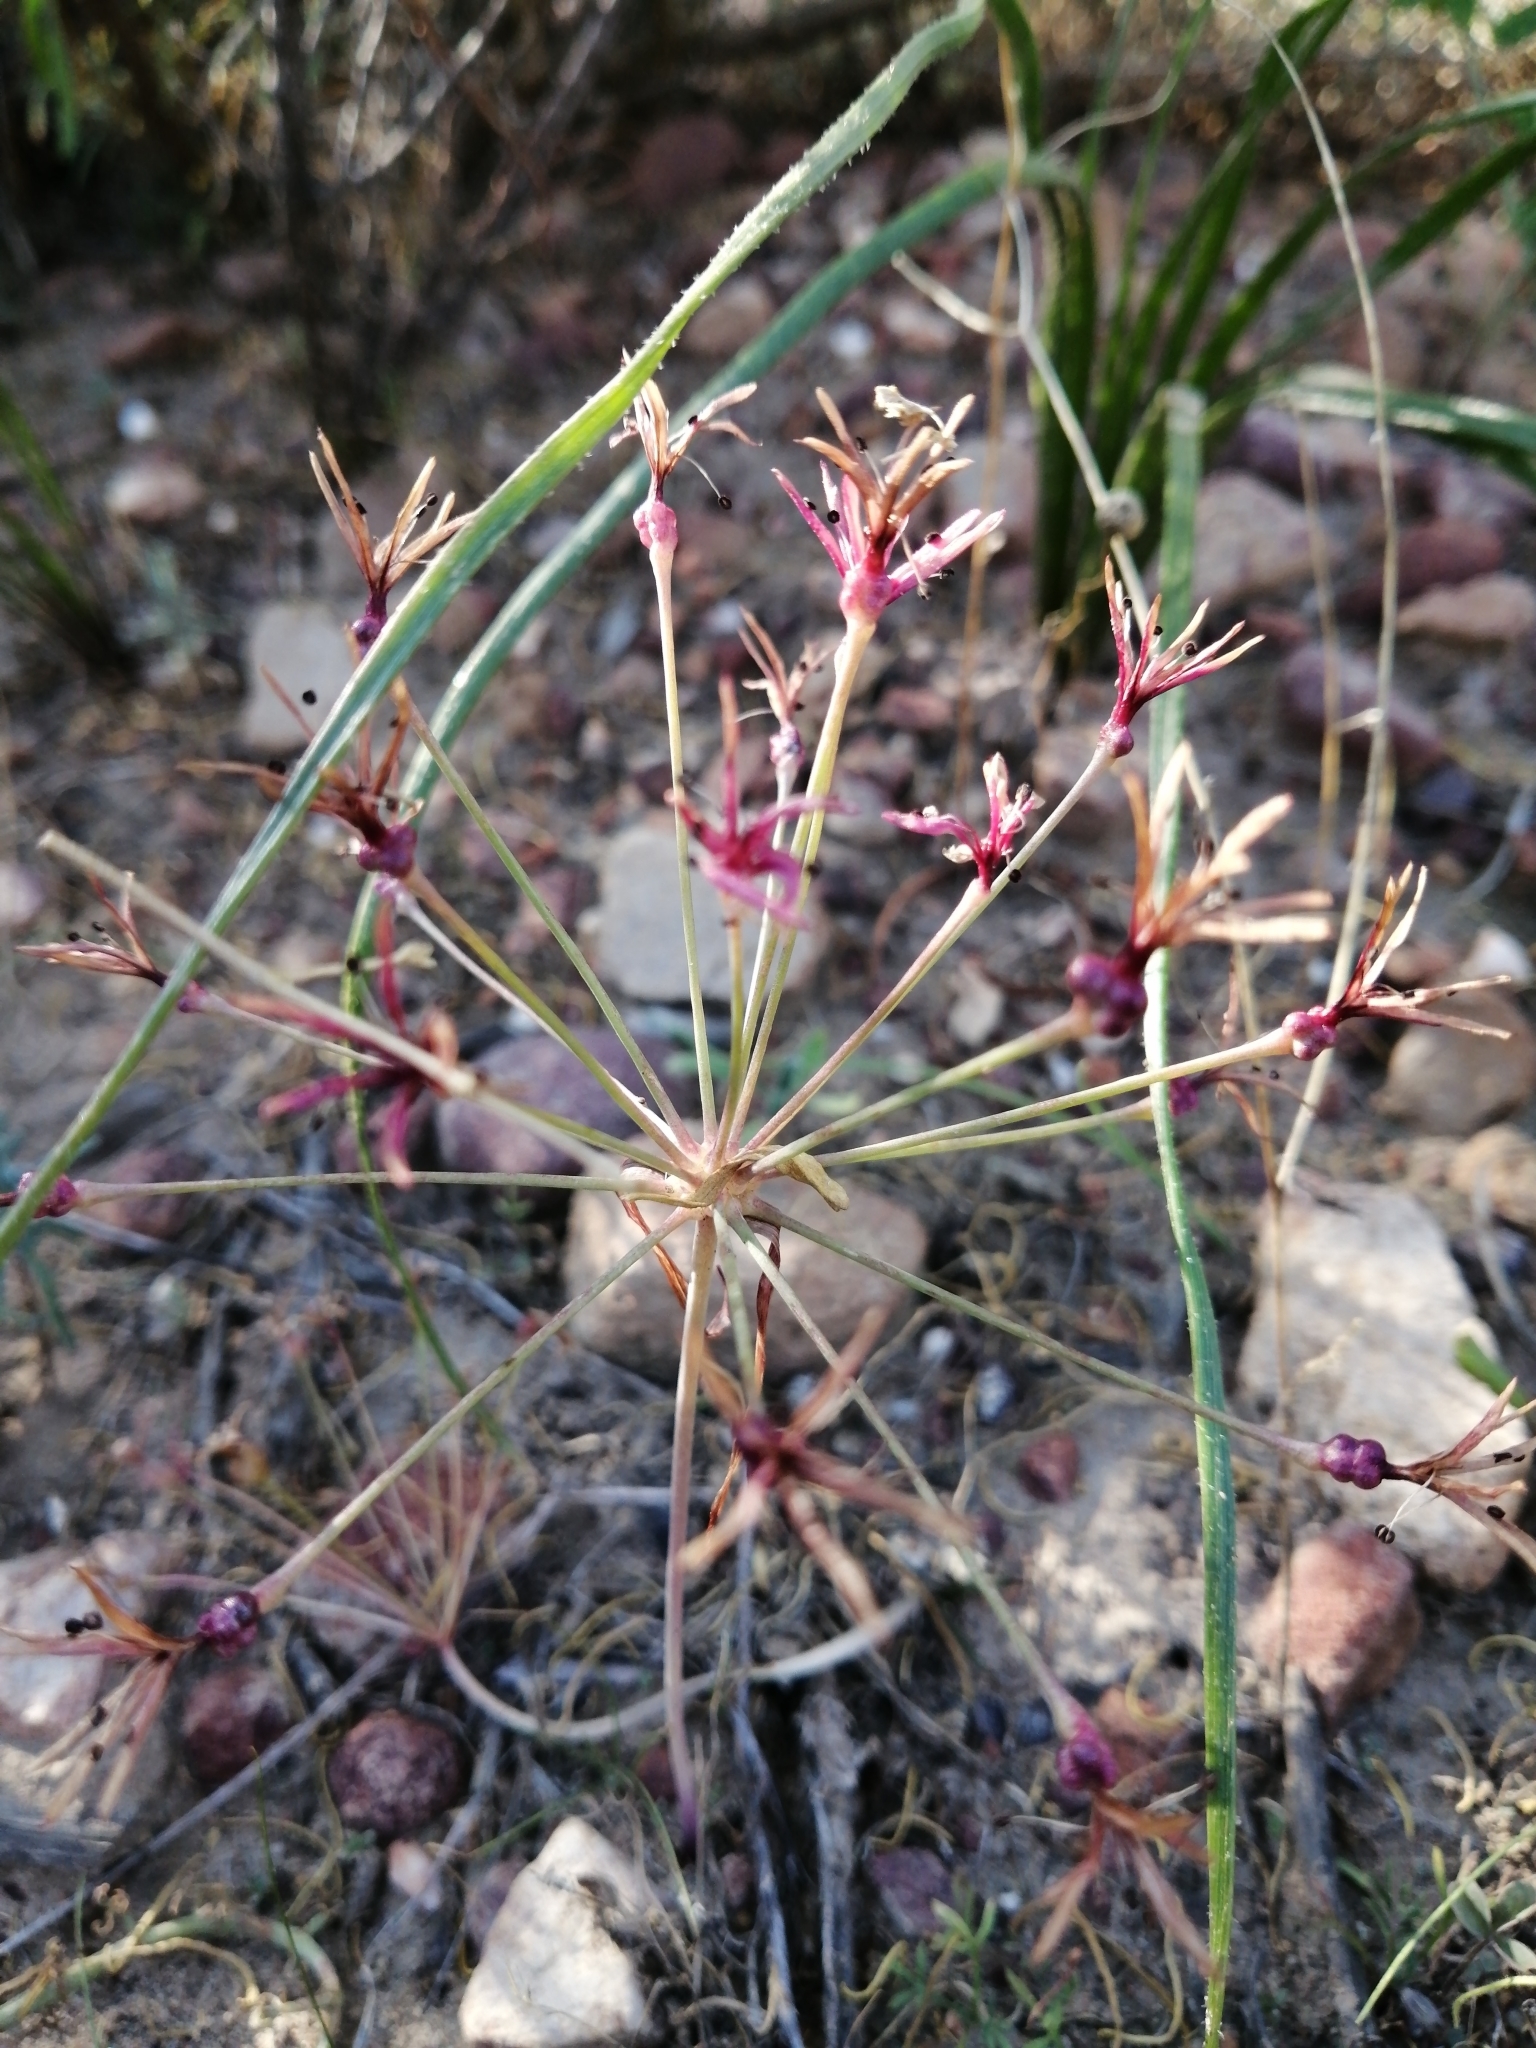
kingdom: Plantae
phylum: Tracheophyta
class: Liliopsida
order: Asparagales
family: Amaryllidaceae
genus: Hessea
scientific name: Hessea stellaris
